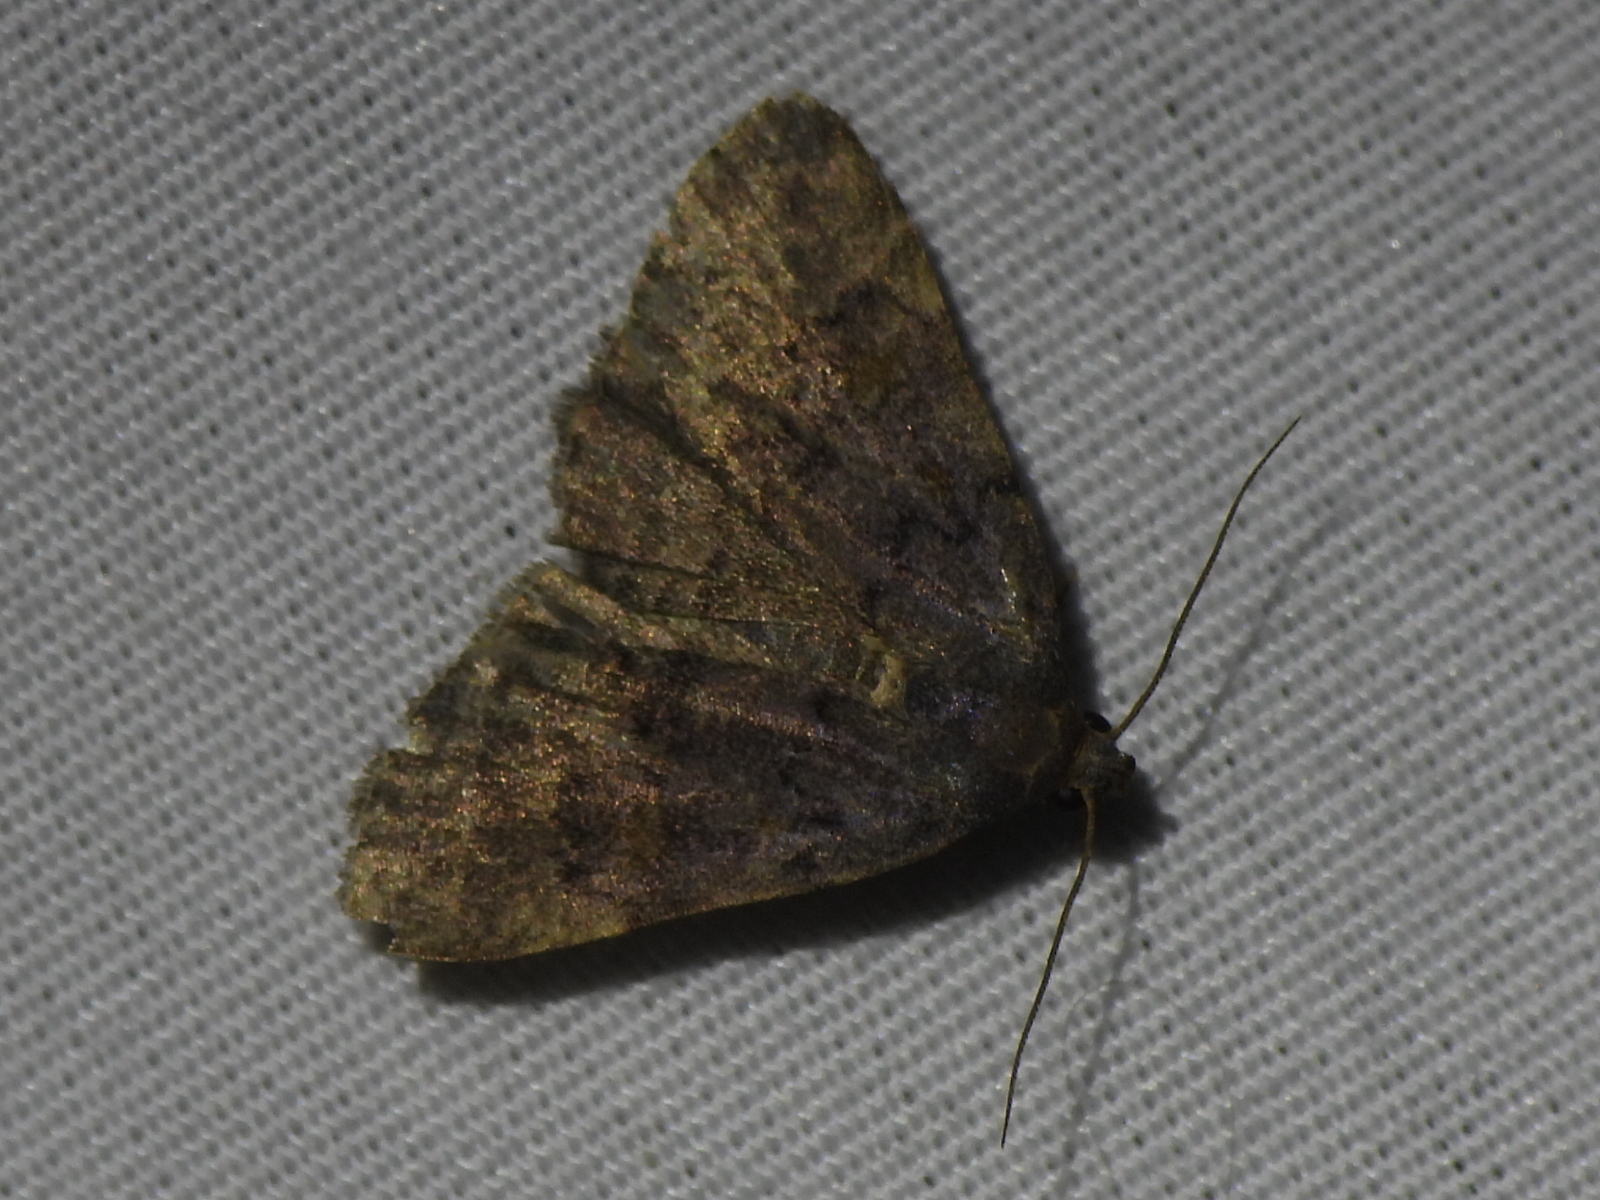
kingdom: Animalia
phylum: Arthropoda
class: Insecta
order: Lepidoptera
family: Erebidae
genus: Idia
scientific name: Idia aemula
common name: Common idia moth
